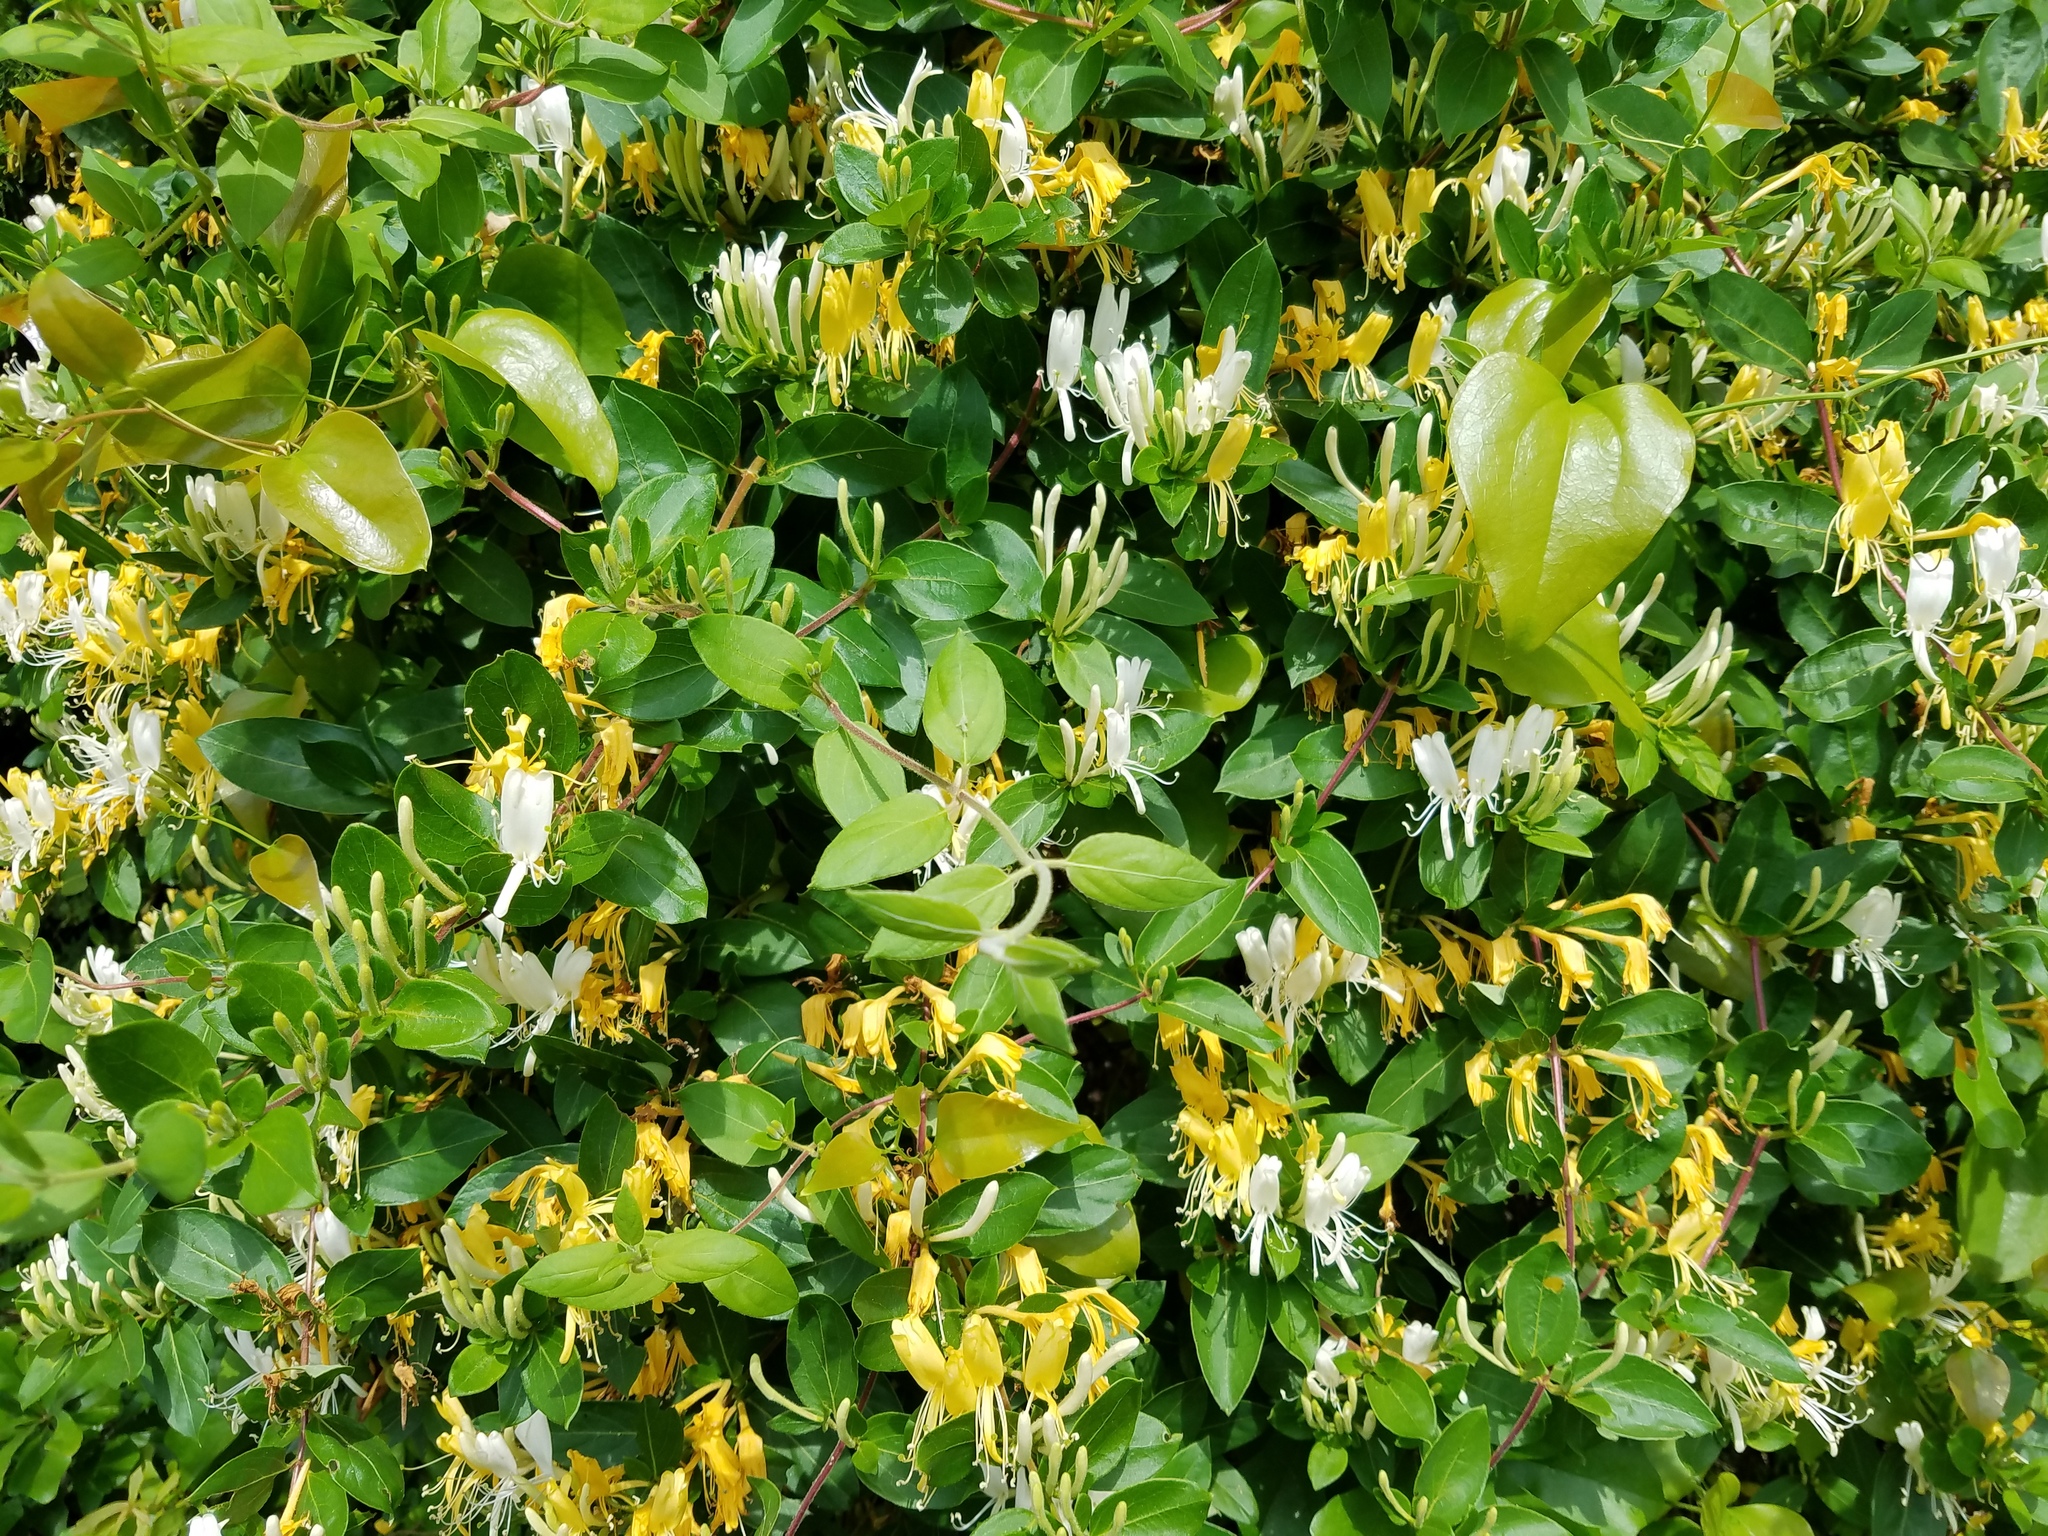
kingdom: Plantae
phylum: Tracheophyta
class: Magnoliopsida
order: Dipsacales
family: Caprifoliaceae
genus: Lonicera
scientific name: Lonicera japonica
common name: Japanese honeysuckle
